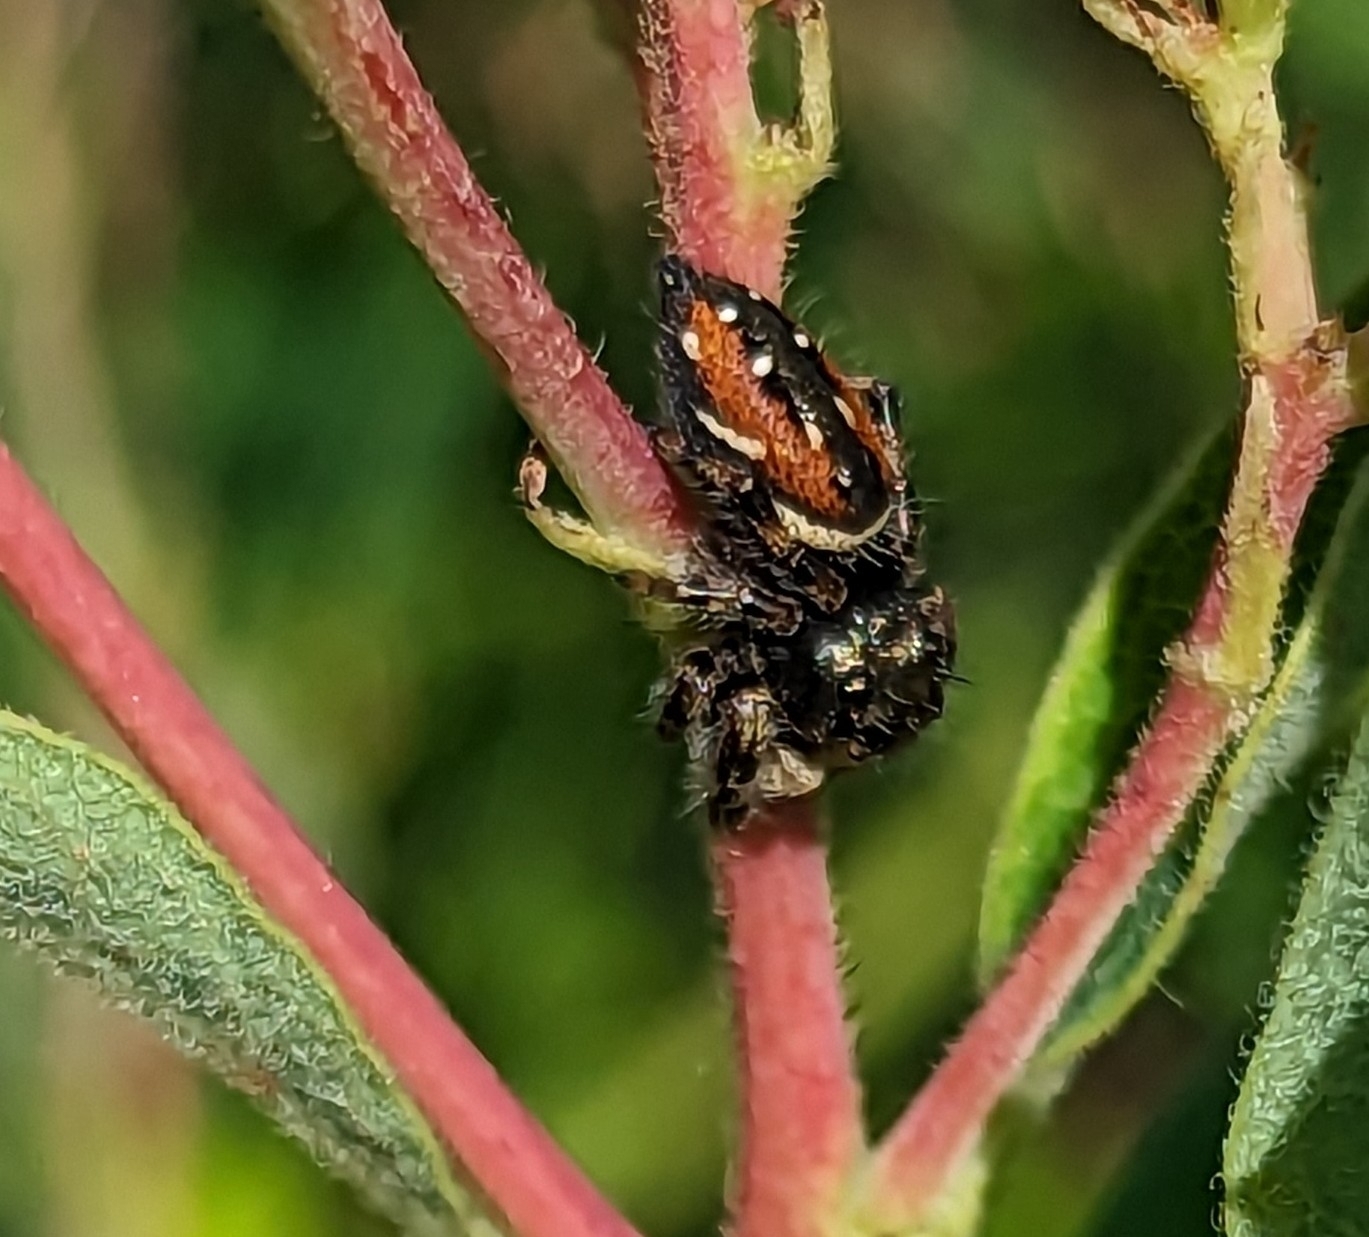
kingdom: Animalia
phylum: Arthropoda
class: Arachnida
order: Araneae
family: Salticidae
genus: Phidippus
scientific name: Phidippus clarus
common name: Brilliant jumping spider
